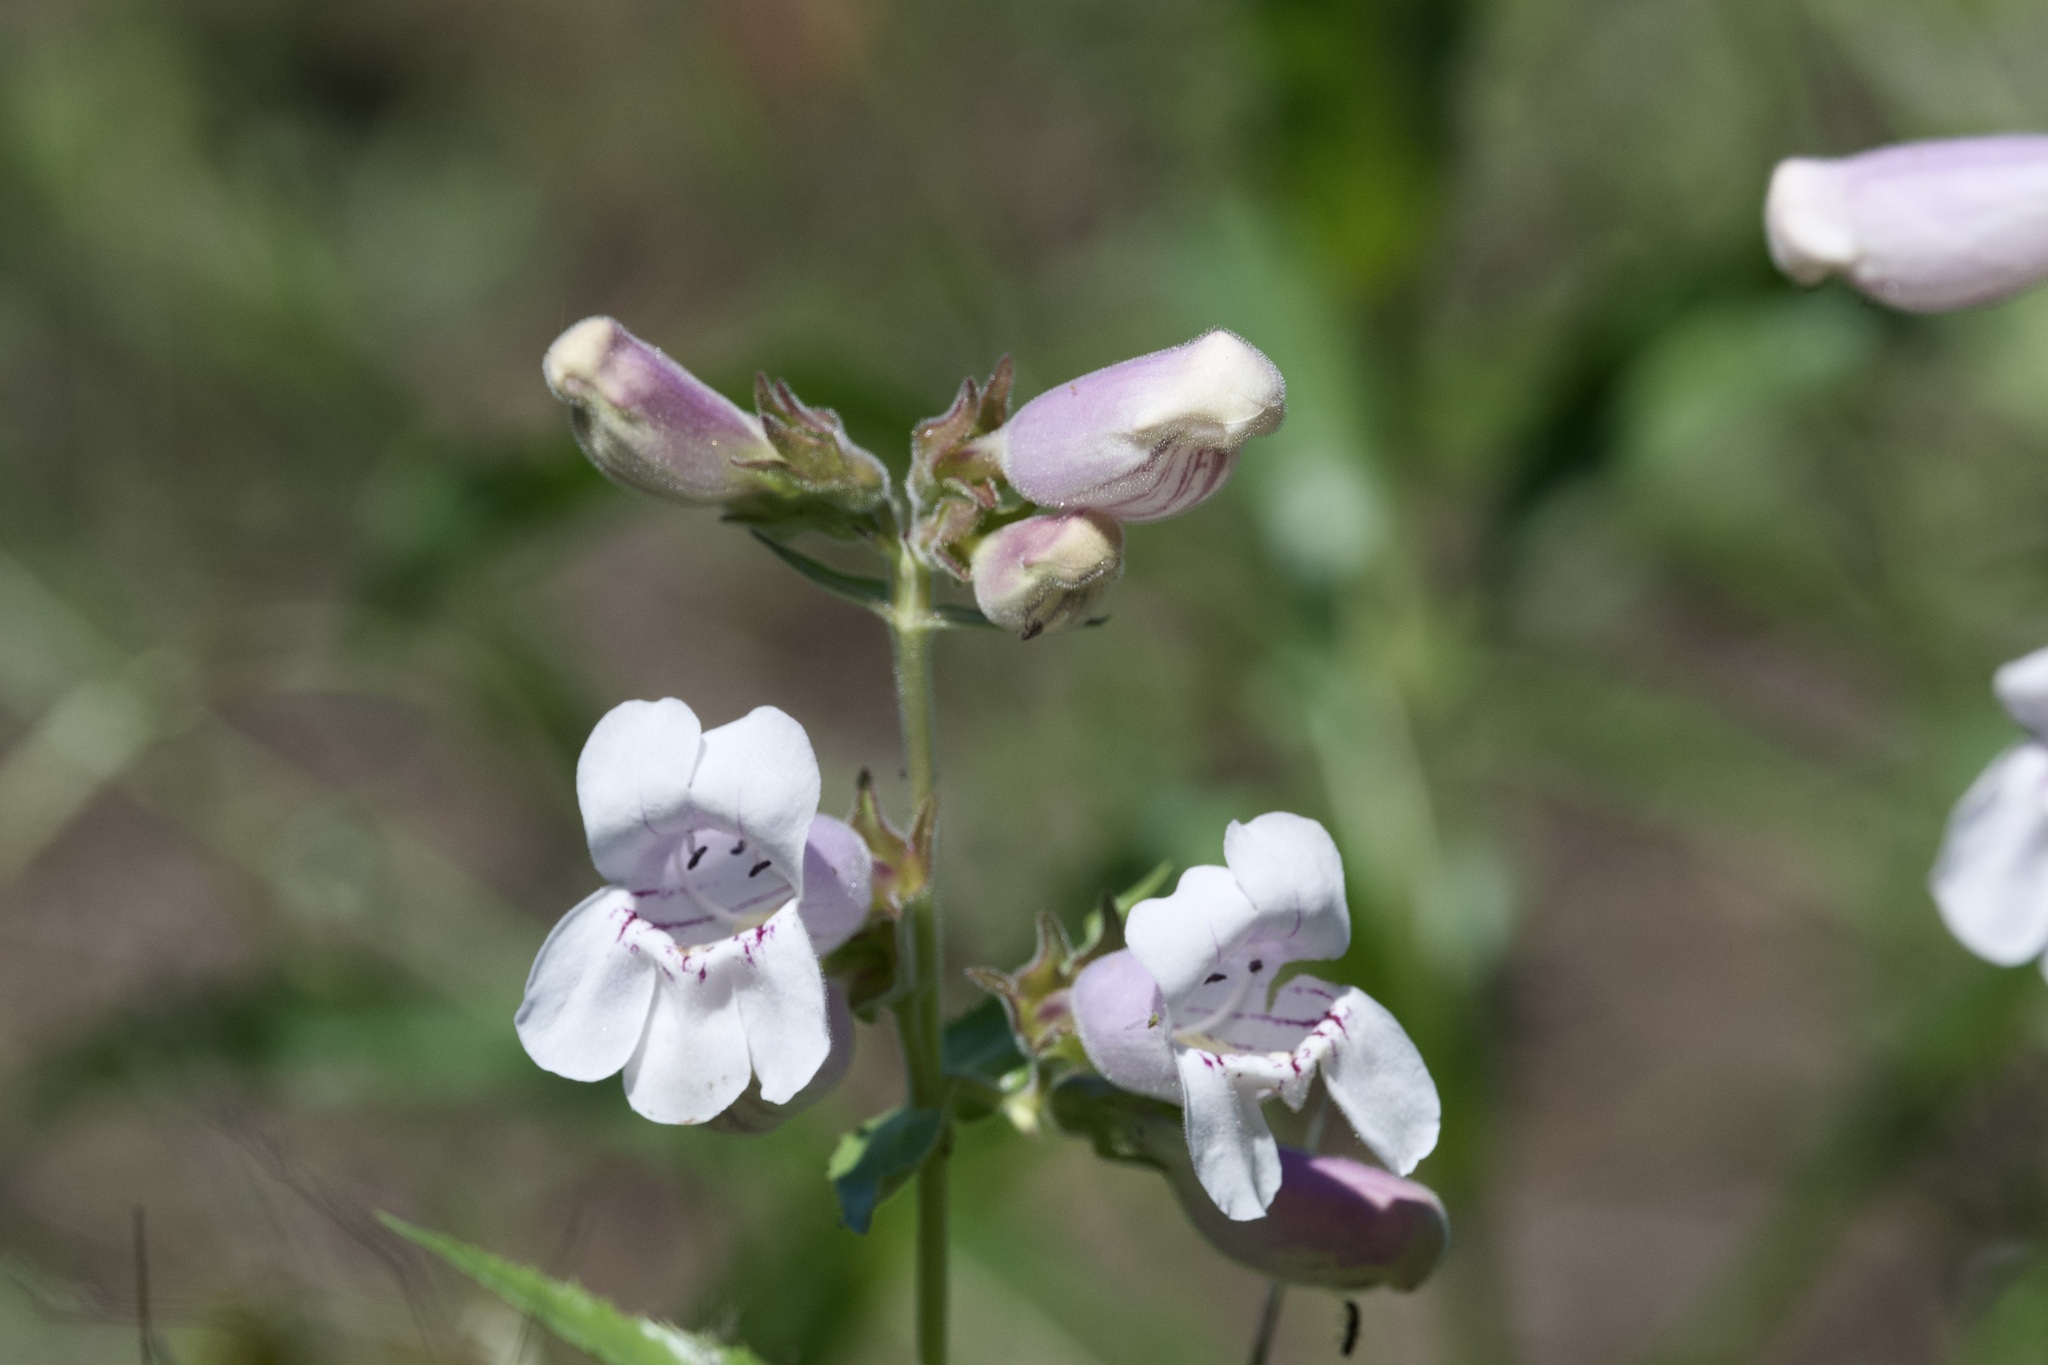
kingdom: Plantae
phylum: Tracheophyta
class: Magnoliopsida
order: Lamiales
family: Plantaginaceae
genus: Penstemon
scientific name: Penstemon cobaea
